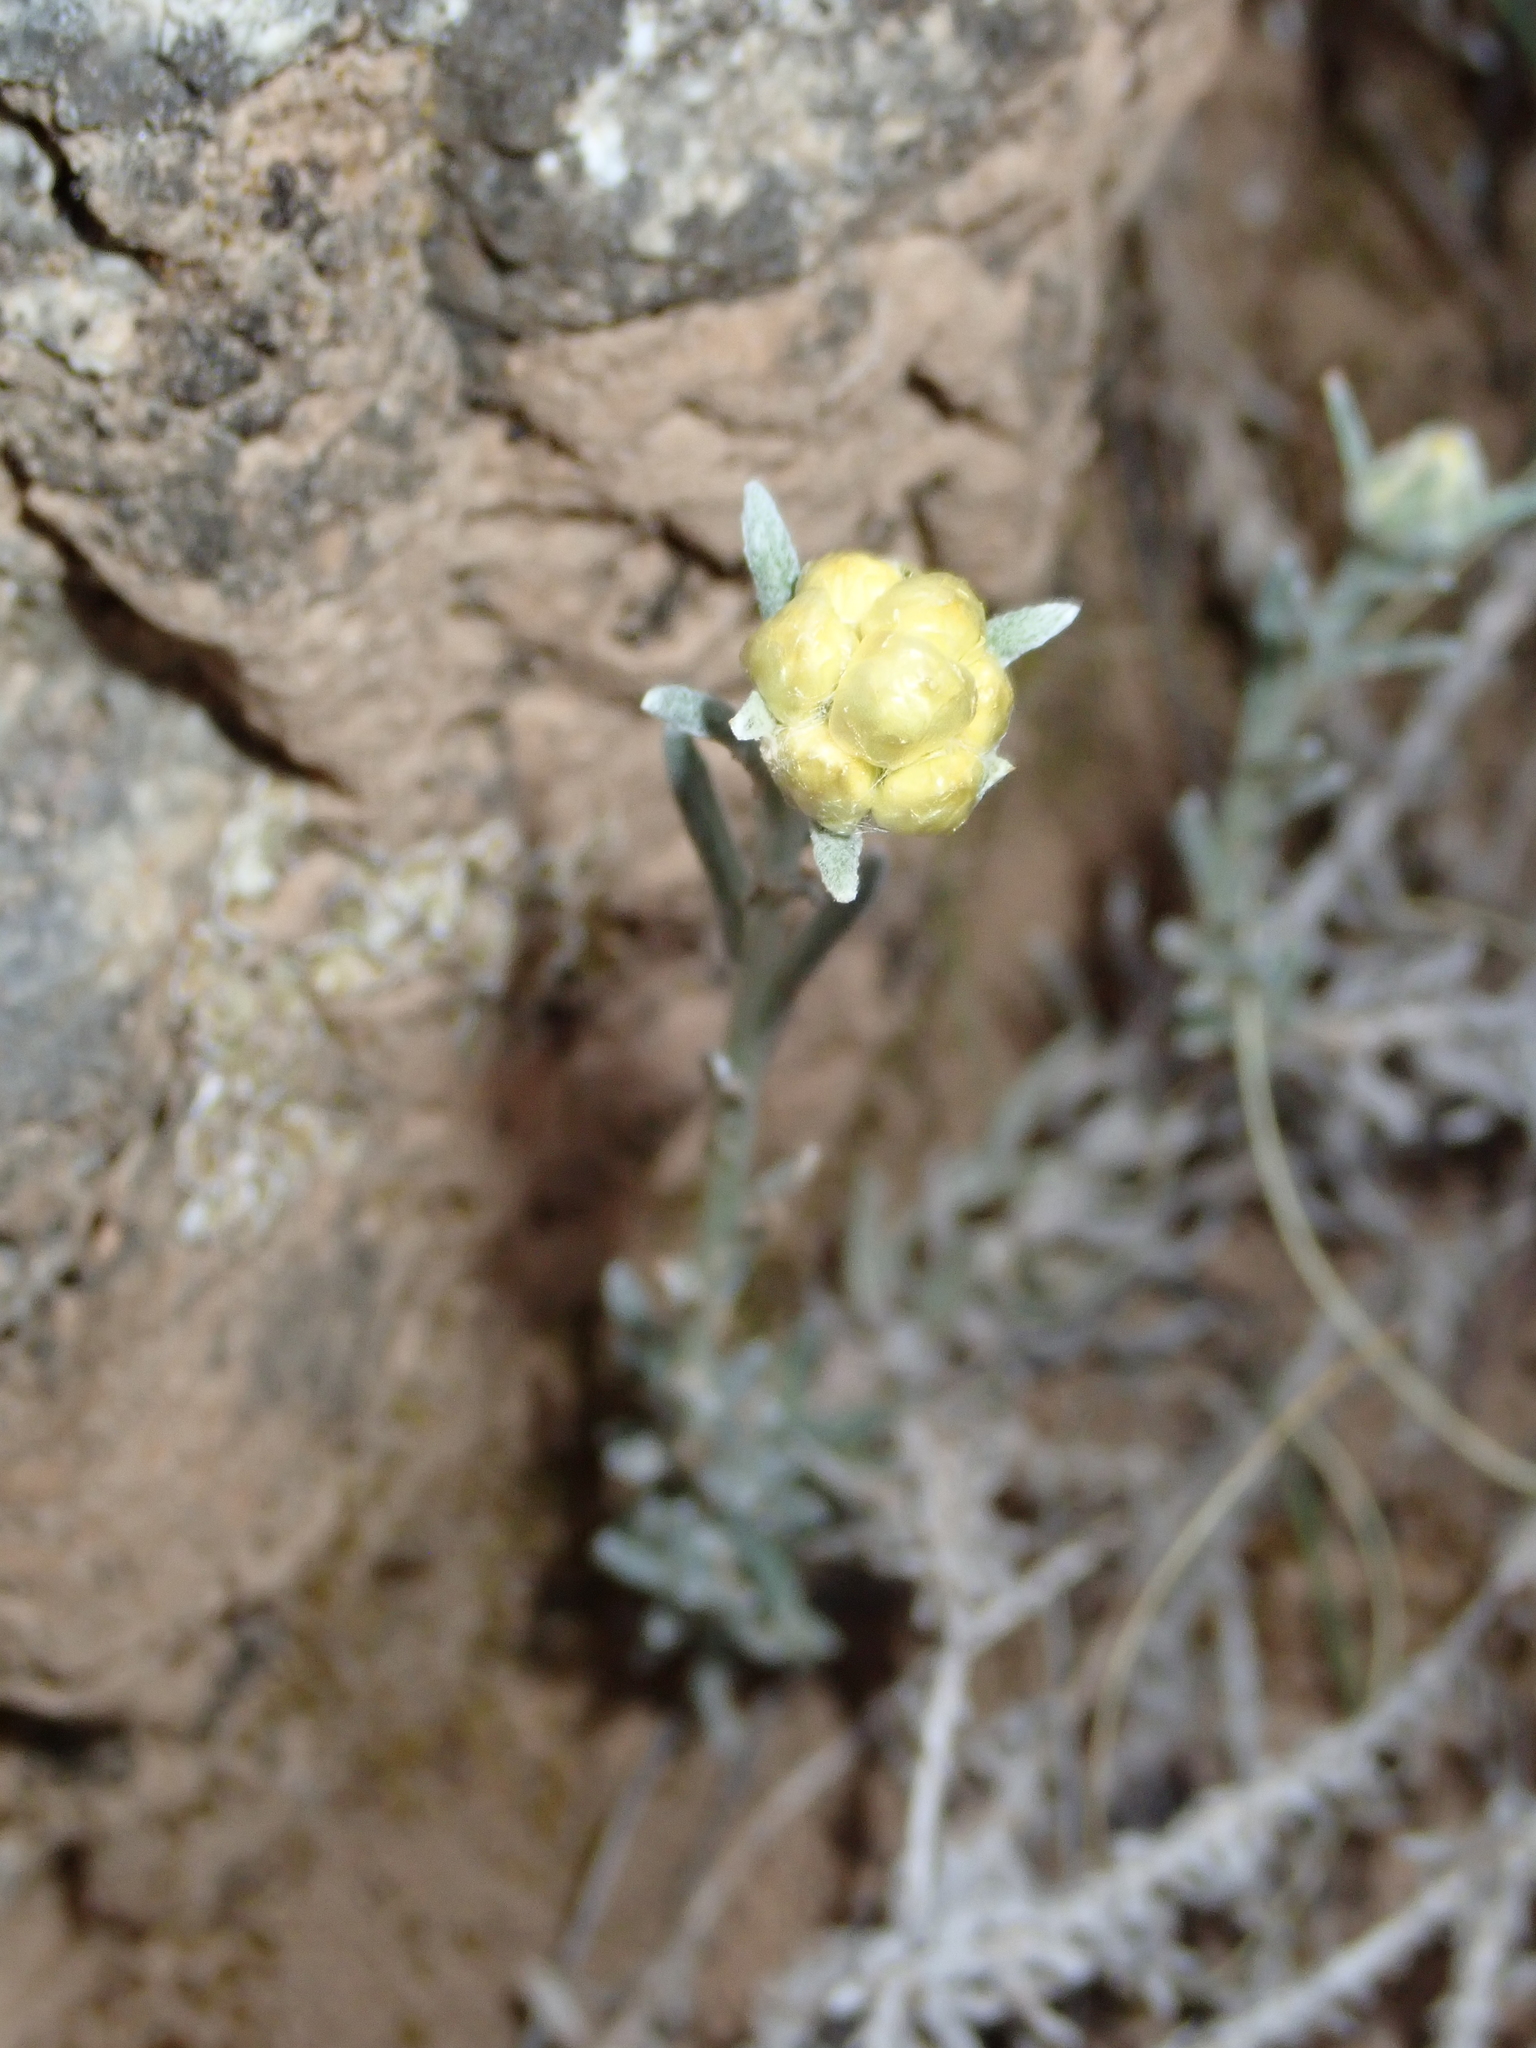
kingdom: Plantae
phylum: Tracheophyta
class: Magnoliopsida
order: Asterales
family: Asteraceae
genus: Helichrysum
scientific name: Helichrysum stoechas
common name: Goldilocks
